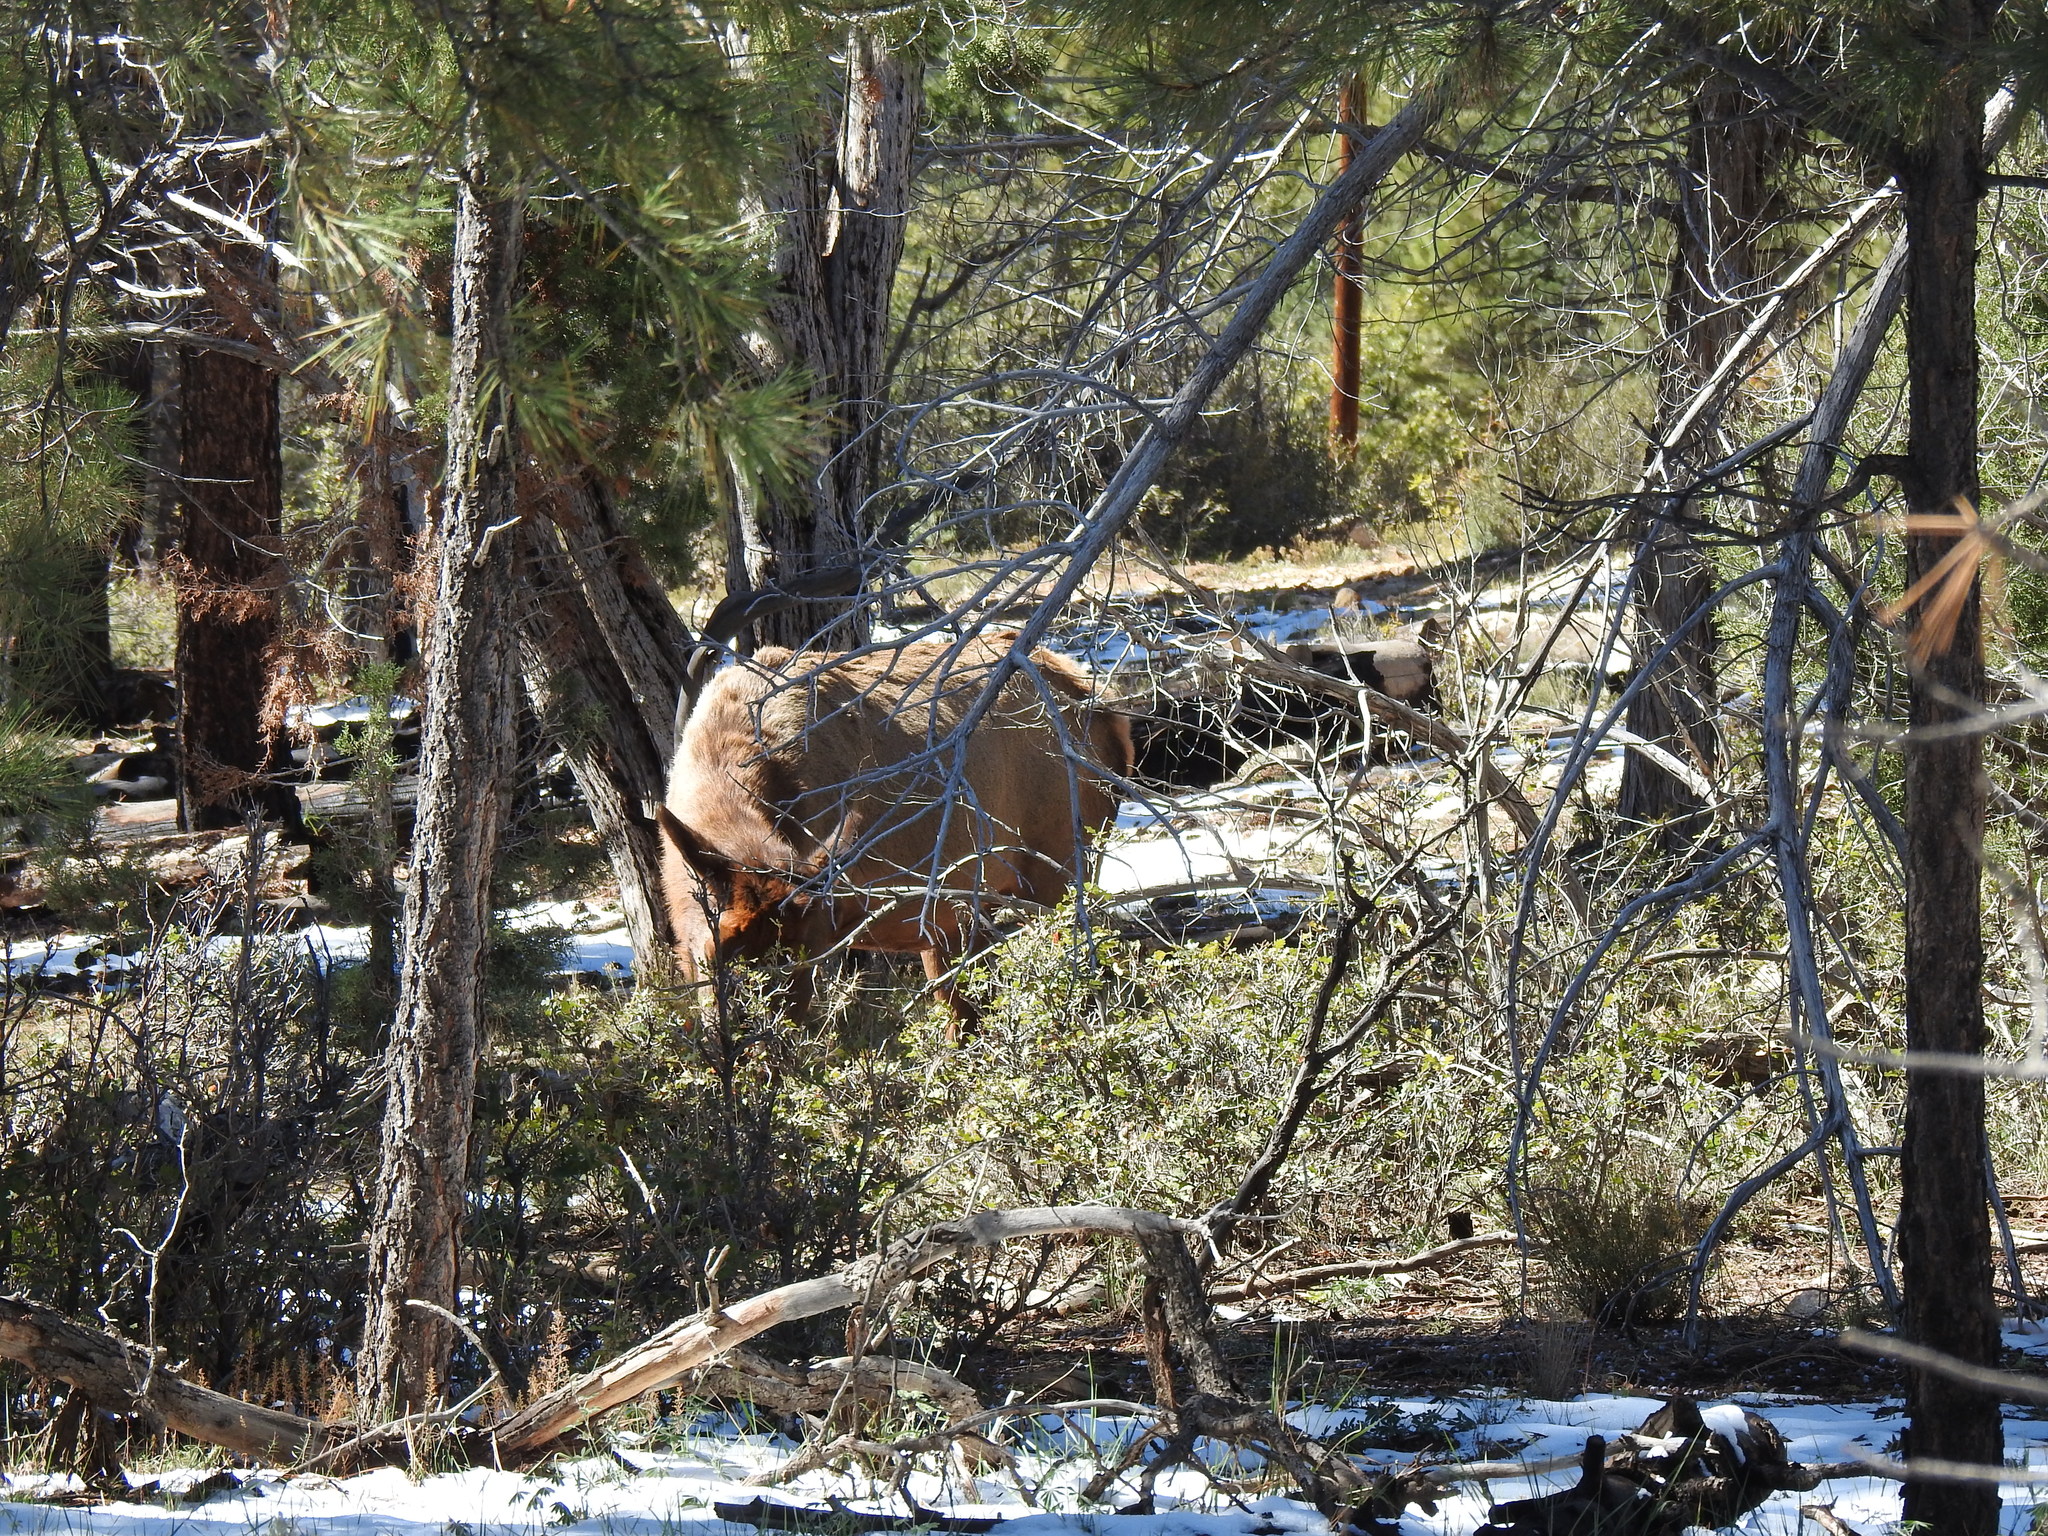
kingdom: Animalia
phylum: Chordata
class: Mammalia
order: Artiodactyla
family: Cervidae
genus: Cervus
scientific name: Cervus elaphus
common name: Red deer
